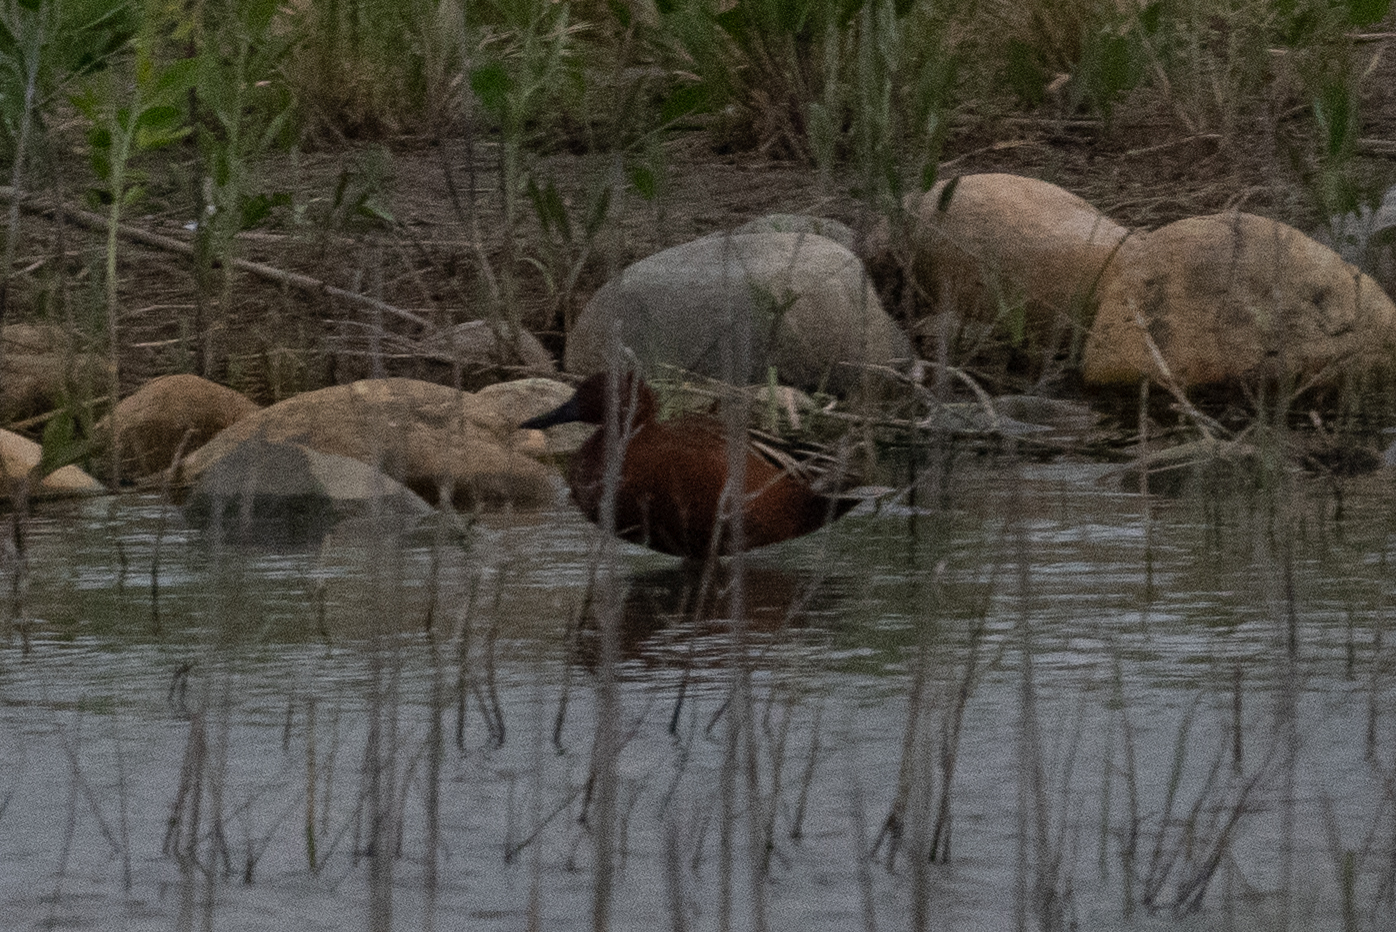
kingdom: Animalia
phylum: Chordata
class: Aves
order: Anseriformes
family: Anatidae
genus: Spatula
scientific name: Spatula cyanoptera
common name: Cinnamon teal
